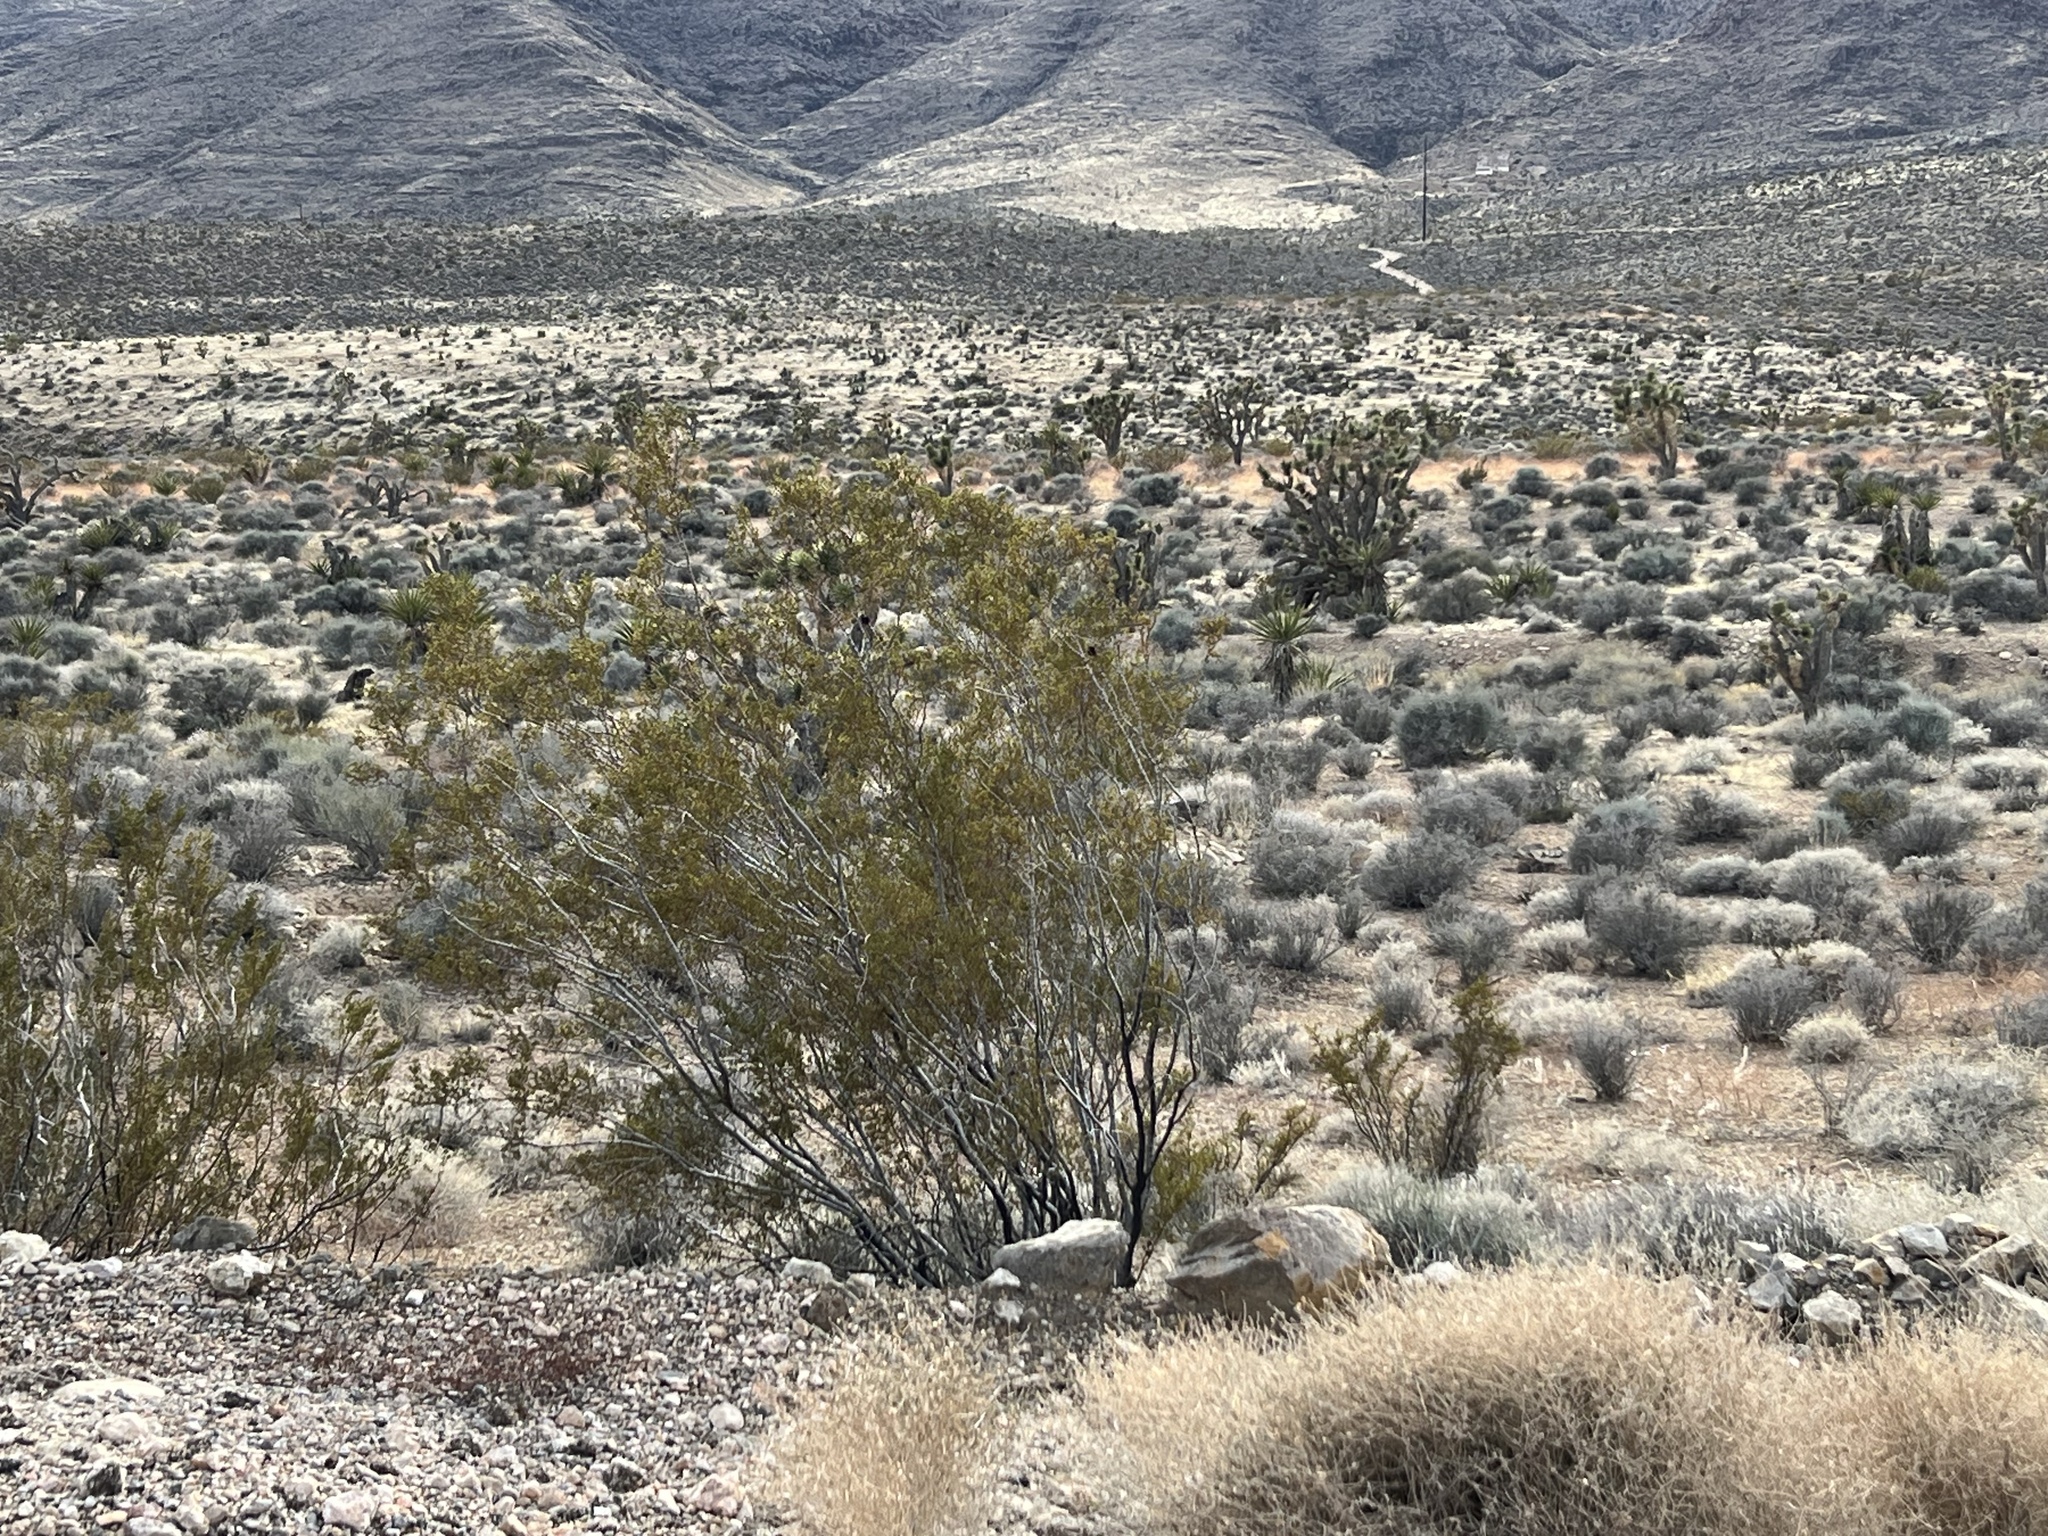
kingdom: Plantae
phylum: Tracheophyta
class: Magnoliopsida
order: Zygophyllales
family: Zygophyllaceae
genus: Larrea
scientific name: Larrea tridentata
